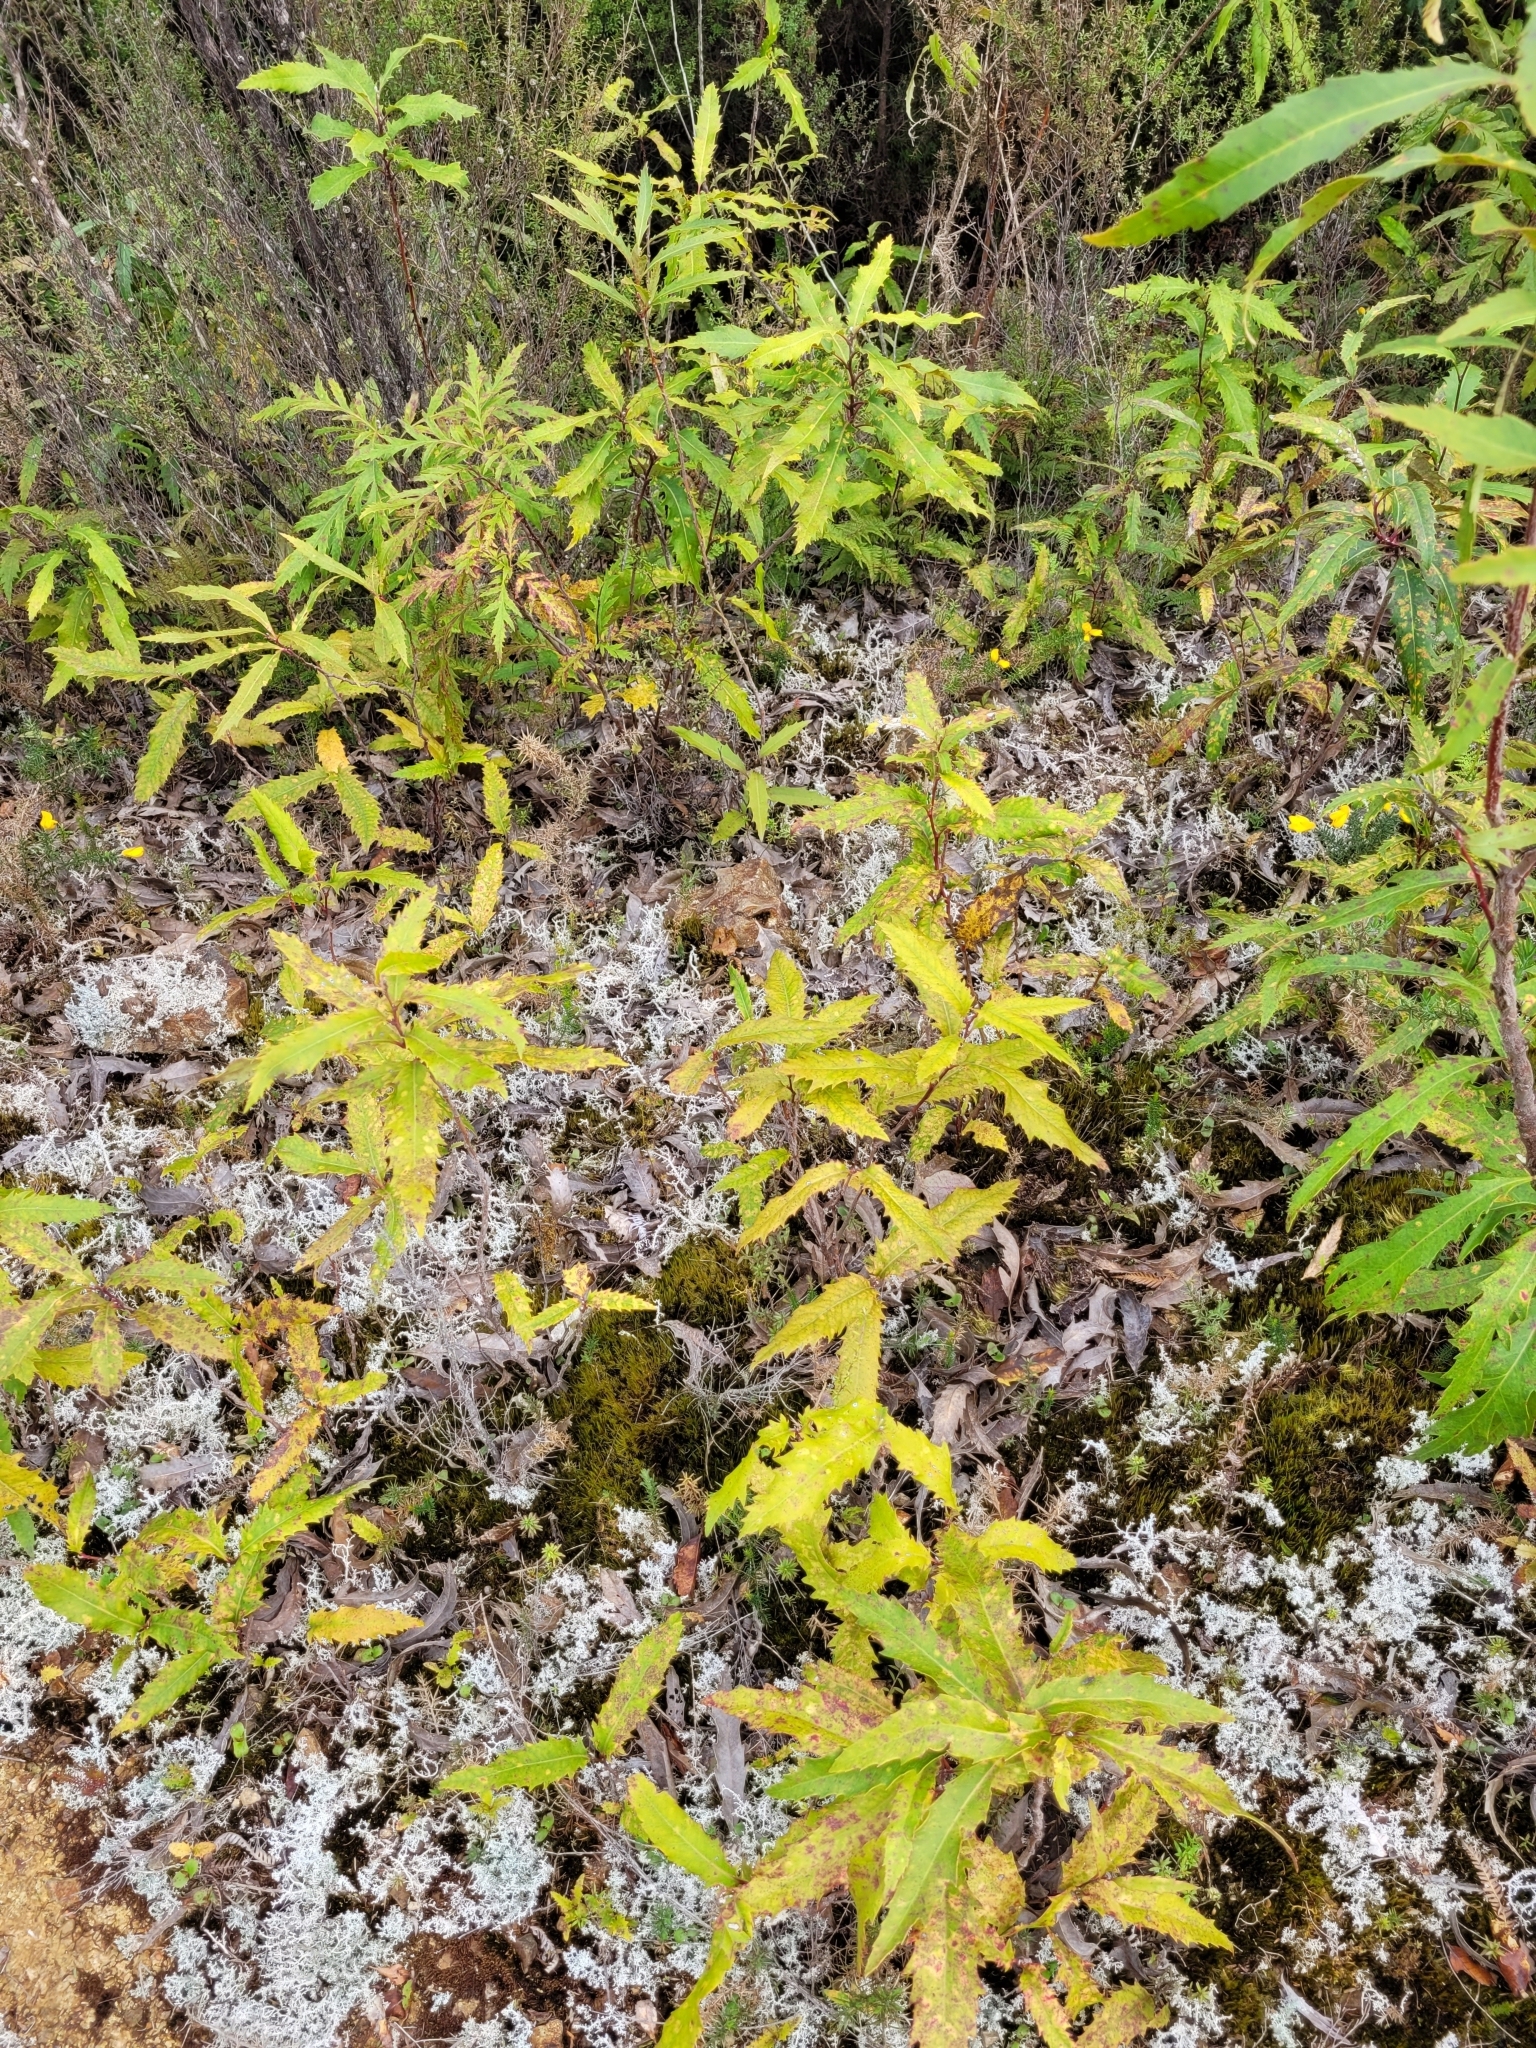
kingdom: Plantae
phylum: Tracheophyta
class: Magnoliopsida
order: Proteales
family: Proteaceae
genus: Lomatia
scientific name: Lomatia fraseri
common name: Forest lomatia
